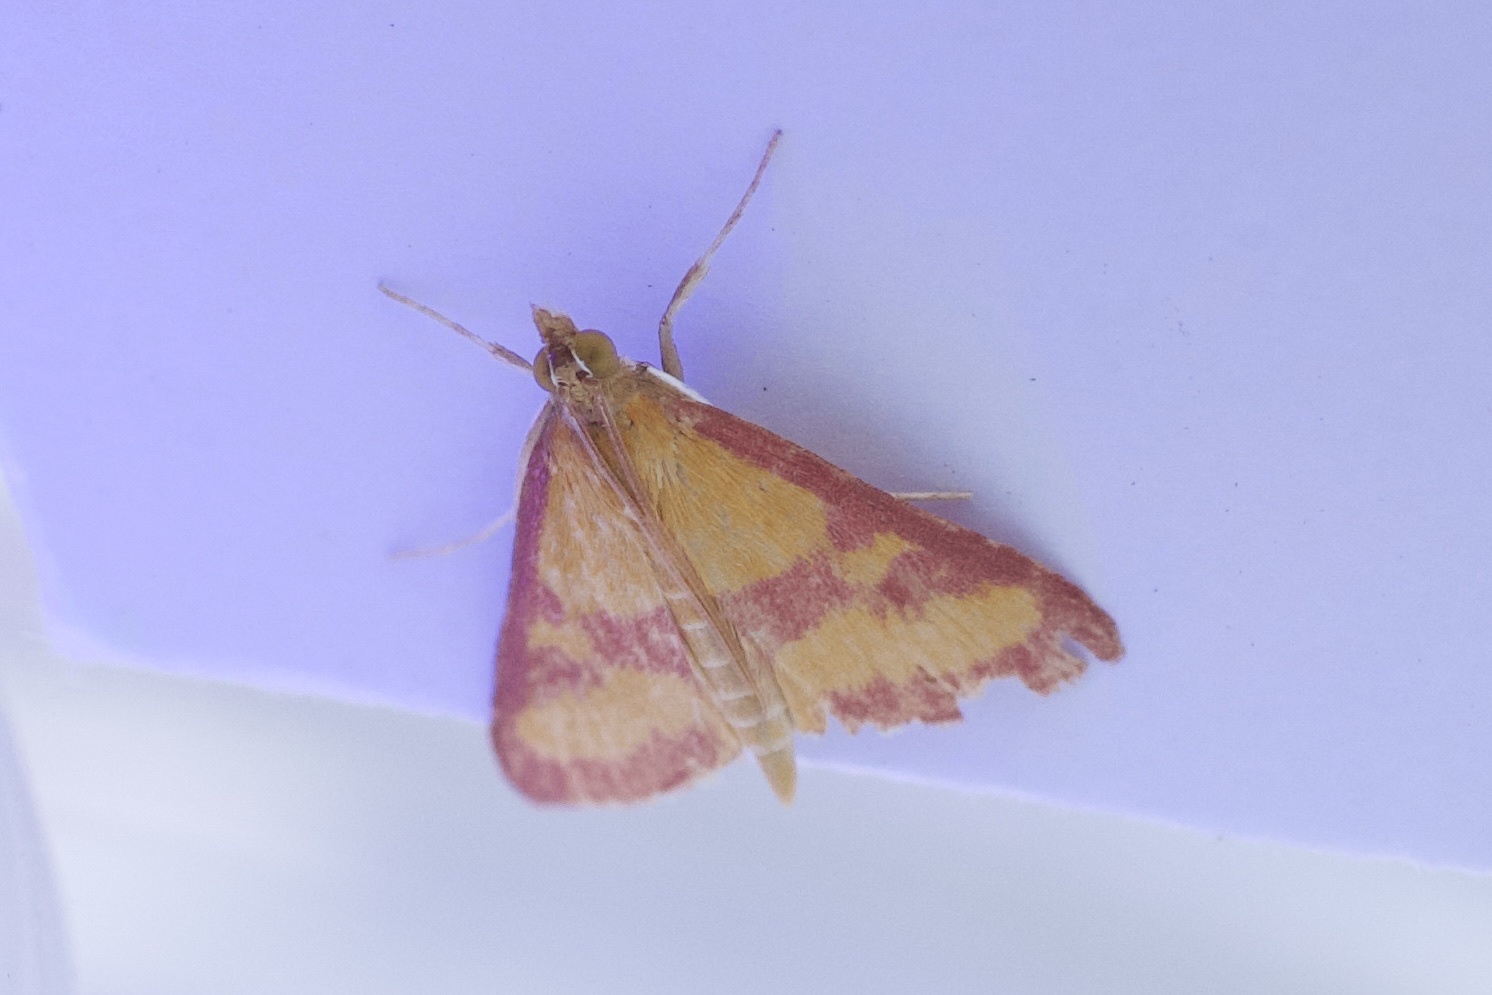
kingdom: Animalia
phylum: Arthropoda
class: Insecta
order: Lepidoptera
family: Crambidae
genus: Pyrausta
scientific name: Pyrausta laticlavia
